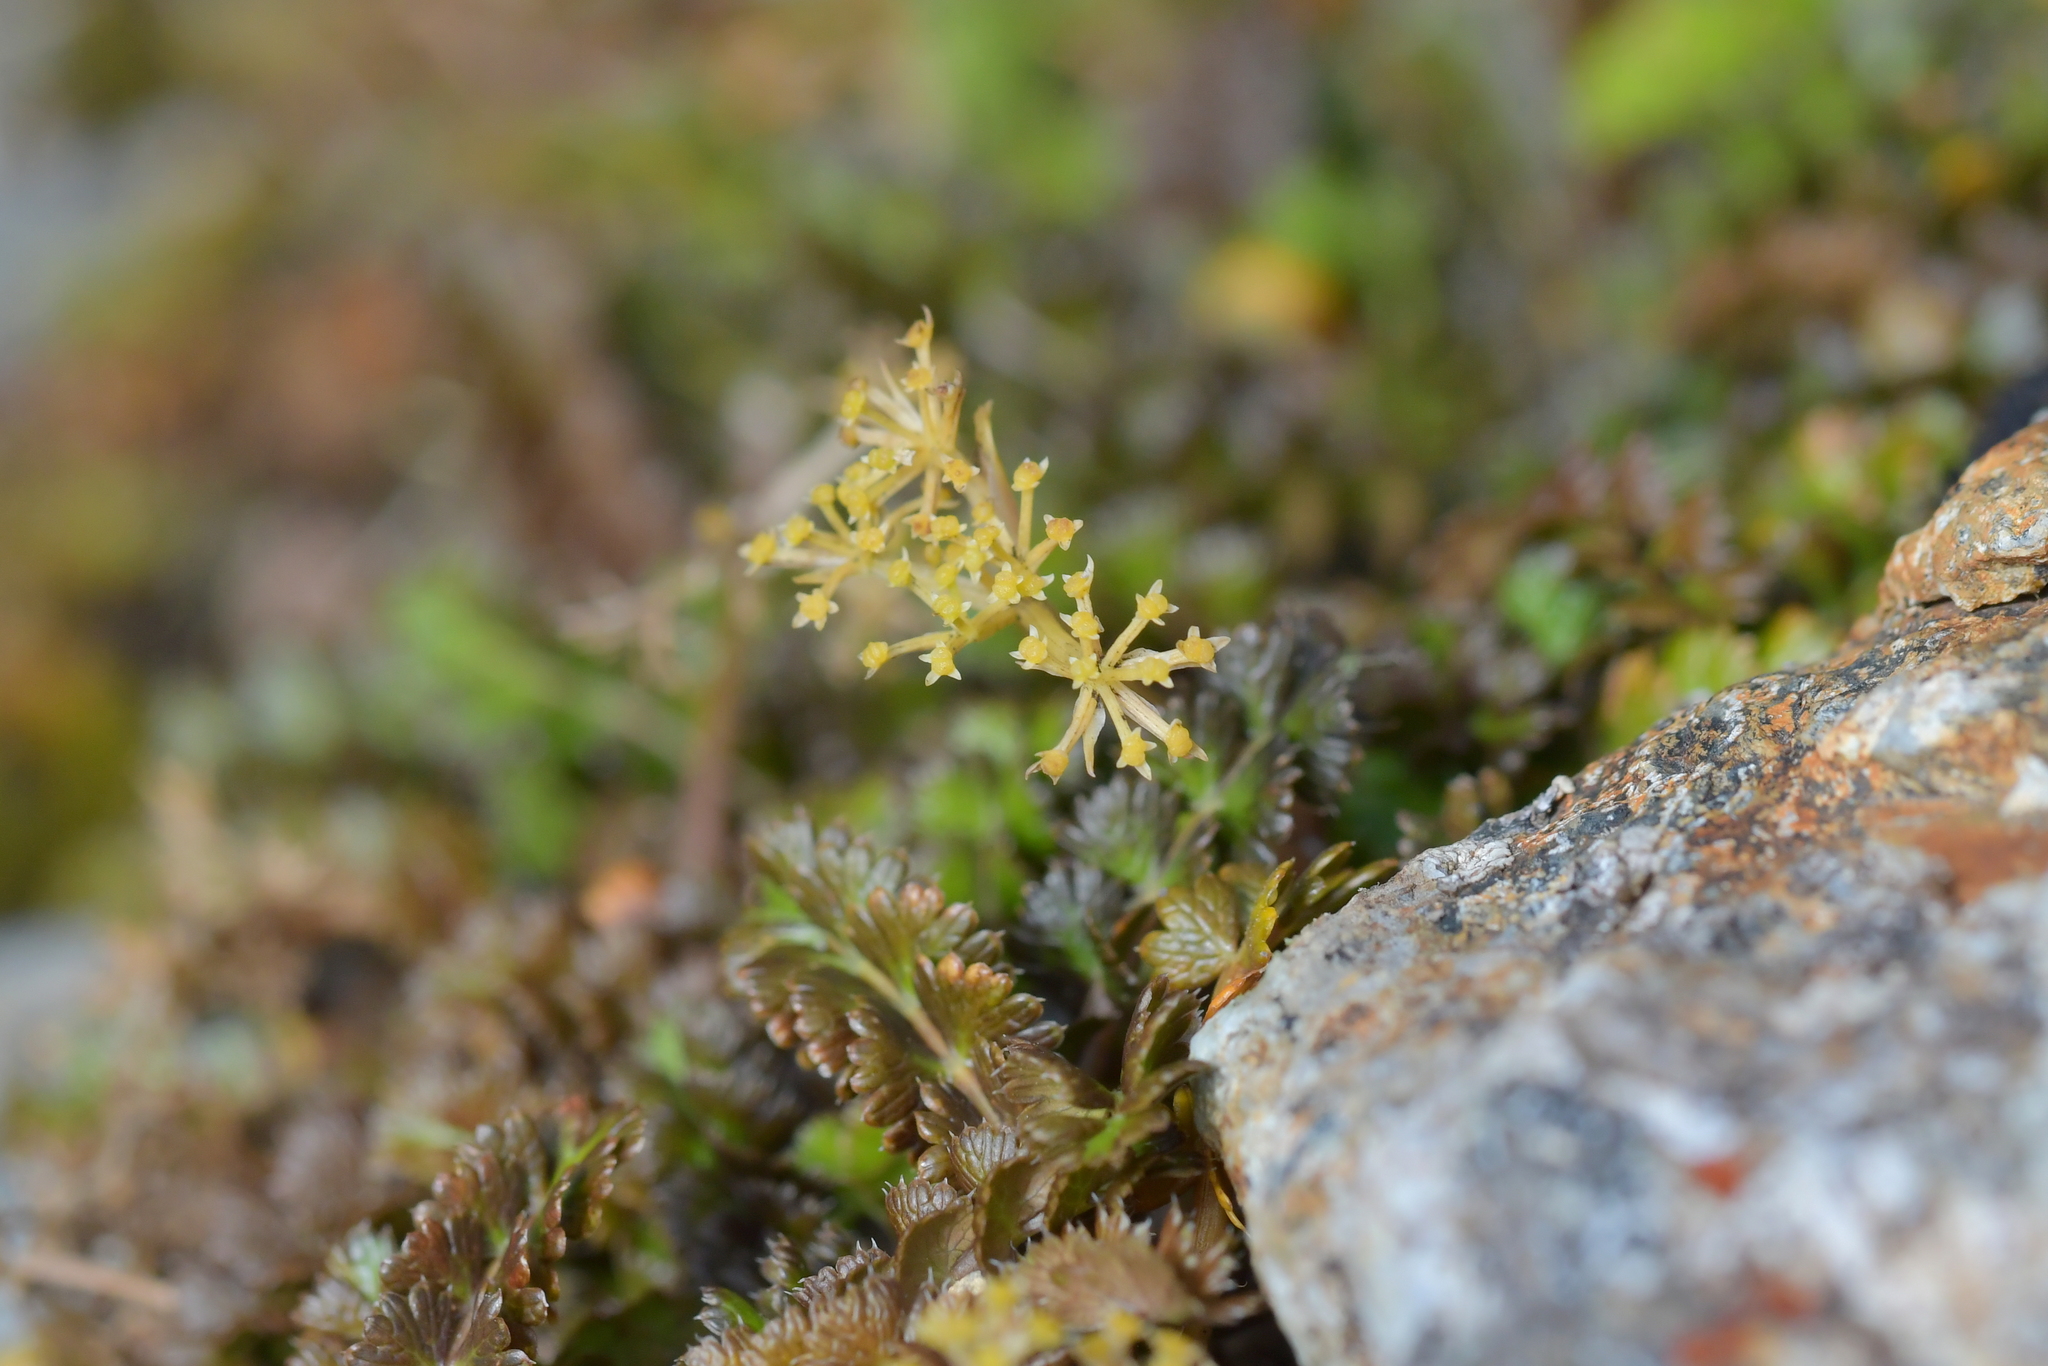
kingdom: Plantae
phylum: Tracheophyta
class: Magnoliopsida
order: Apiales
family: Apiaceae
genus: Anisotome
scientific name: Anisotome aromatica
